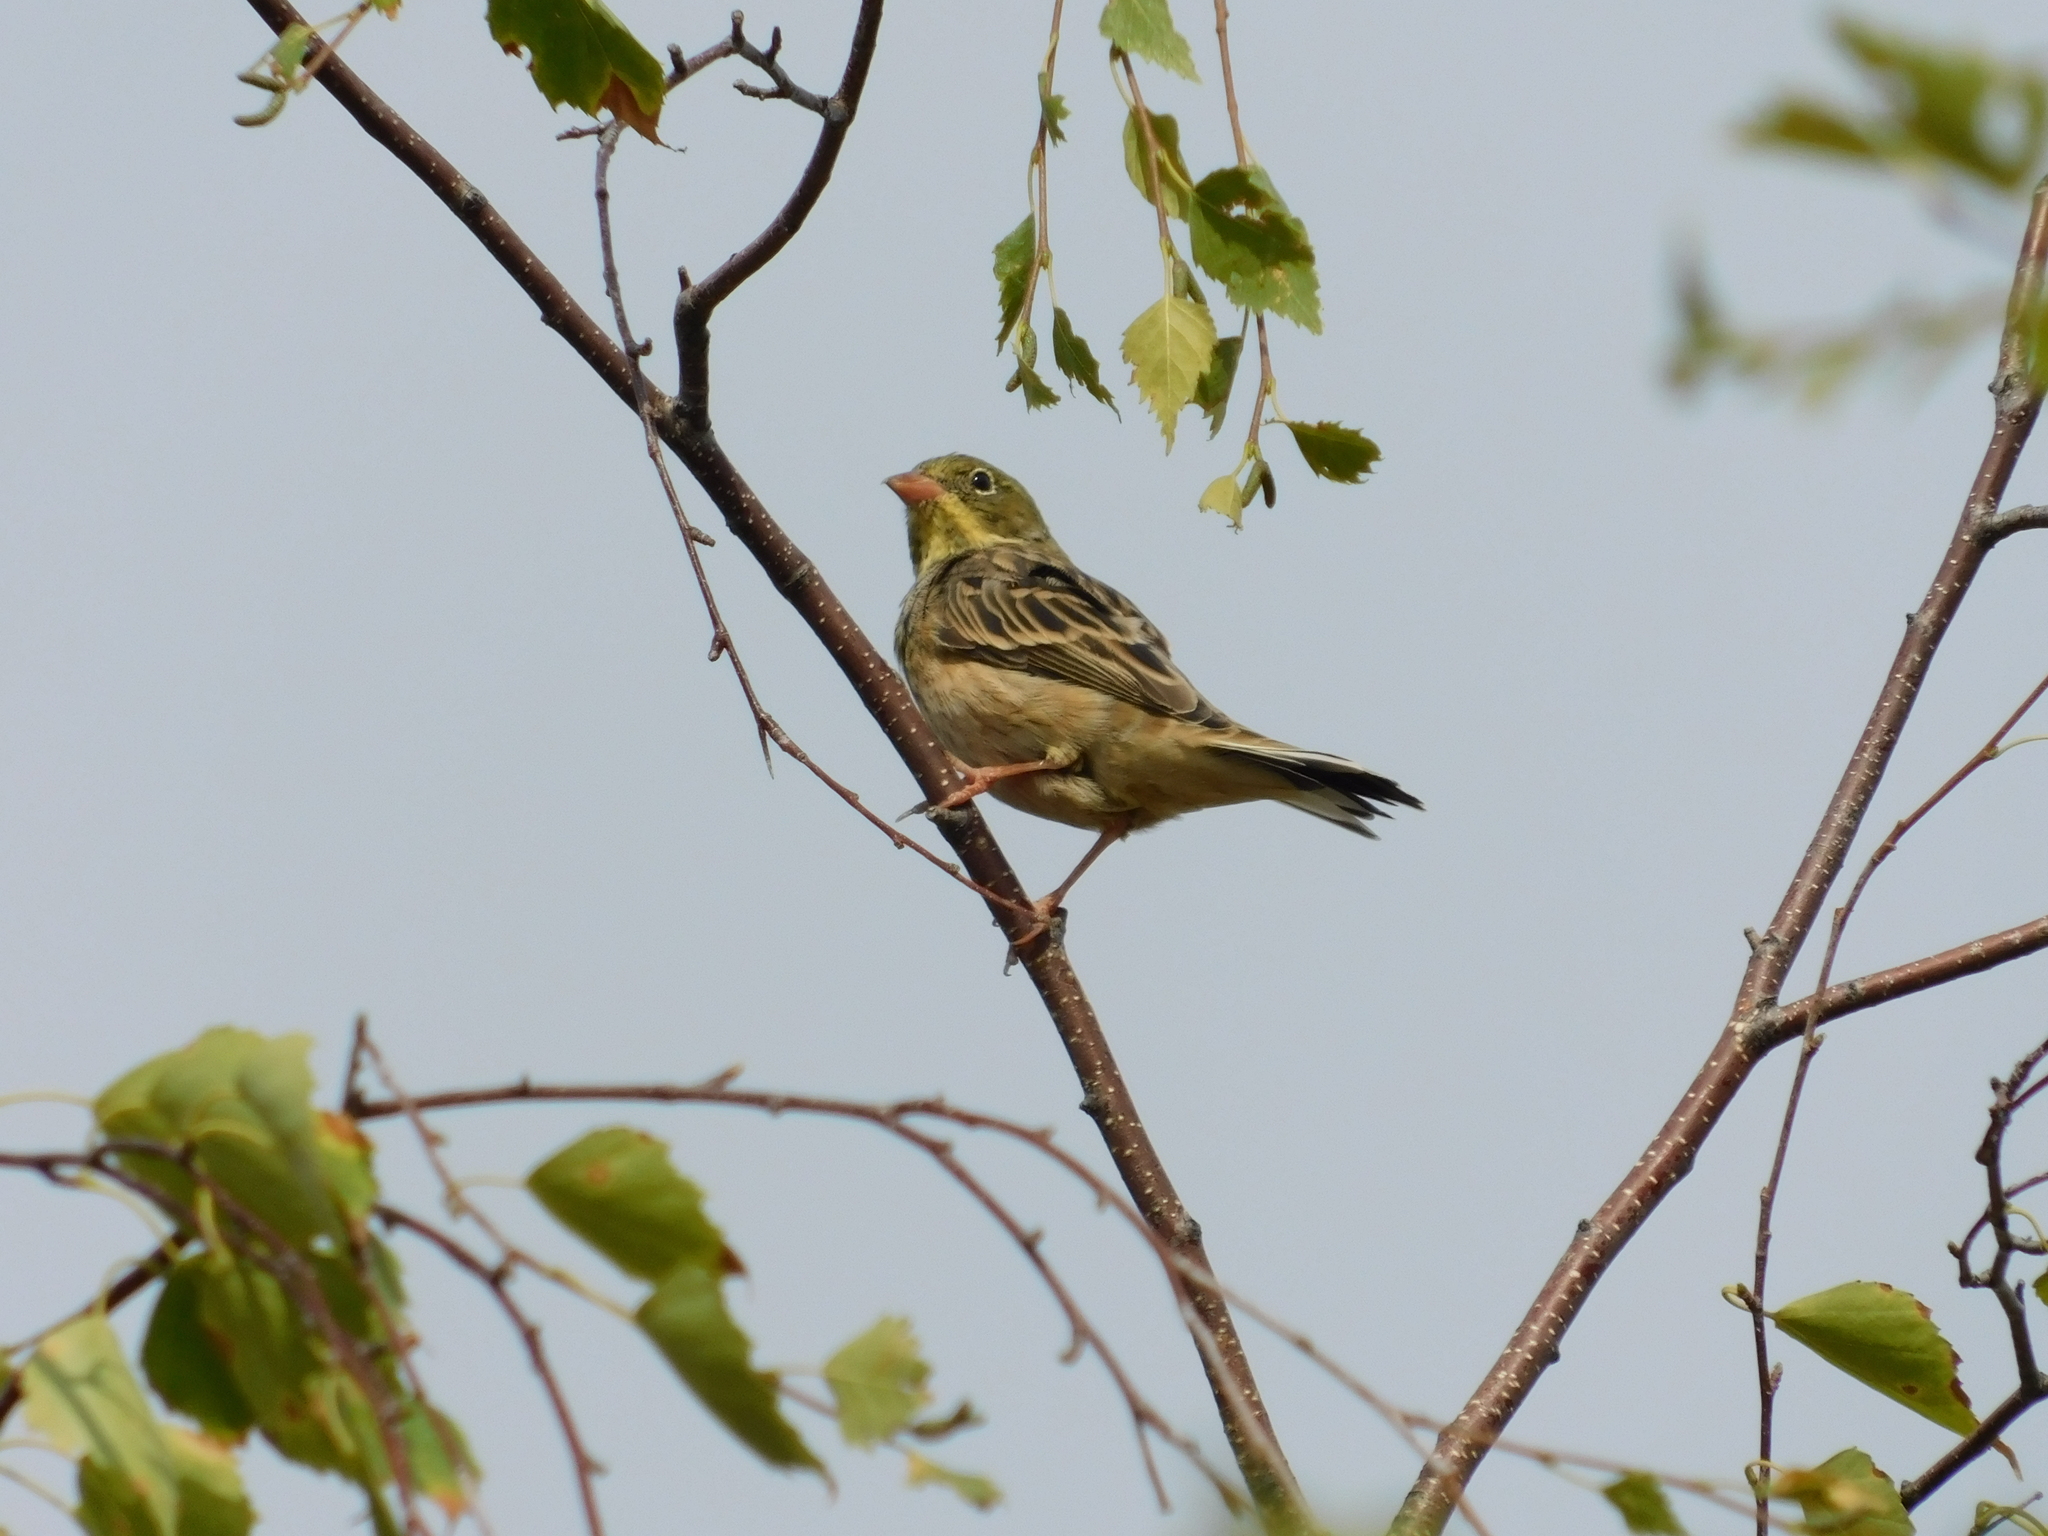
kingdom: Animalia
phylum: Chordata
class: Aves
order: Passeriformes
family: Emberizidae
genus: Emberiza
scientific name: Emberiza hortulana
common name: Ortolan bunting
